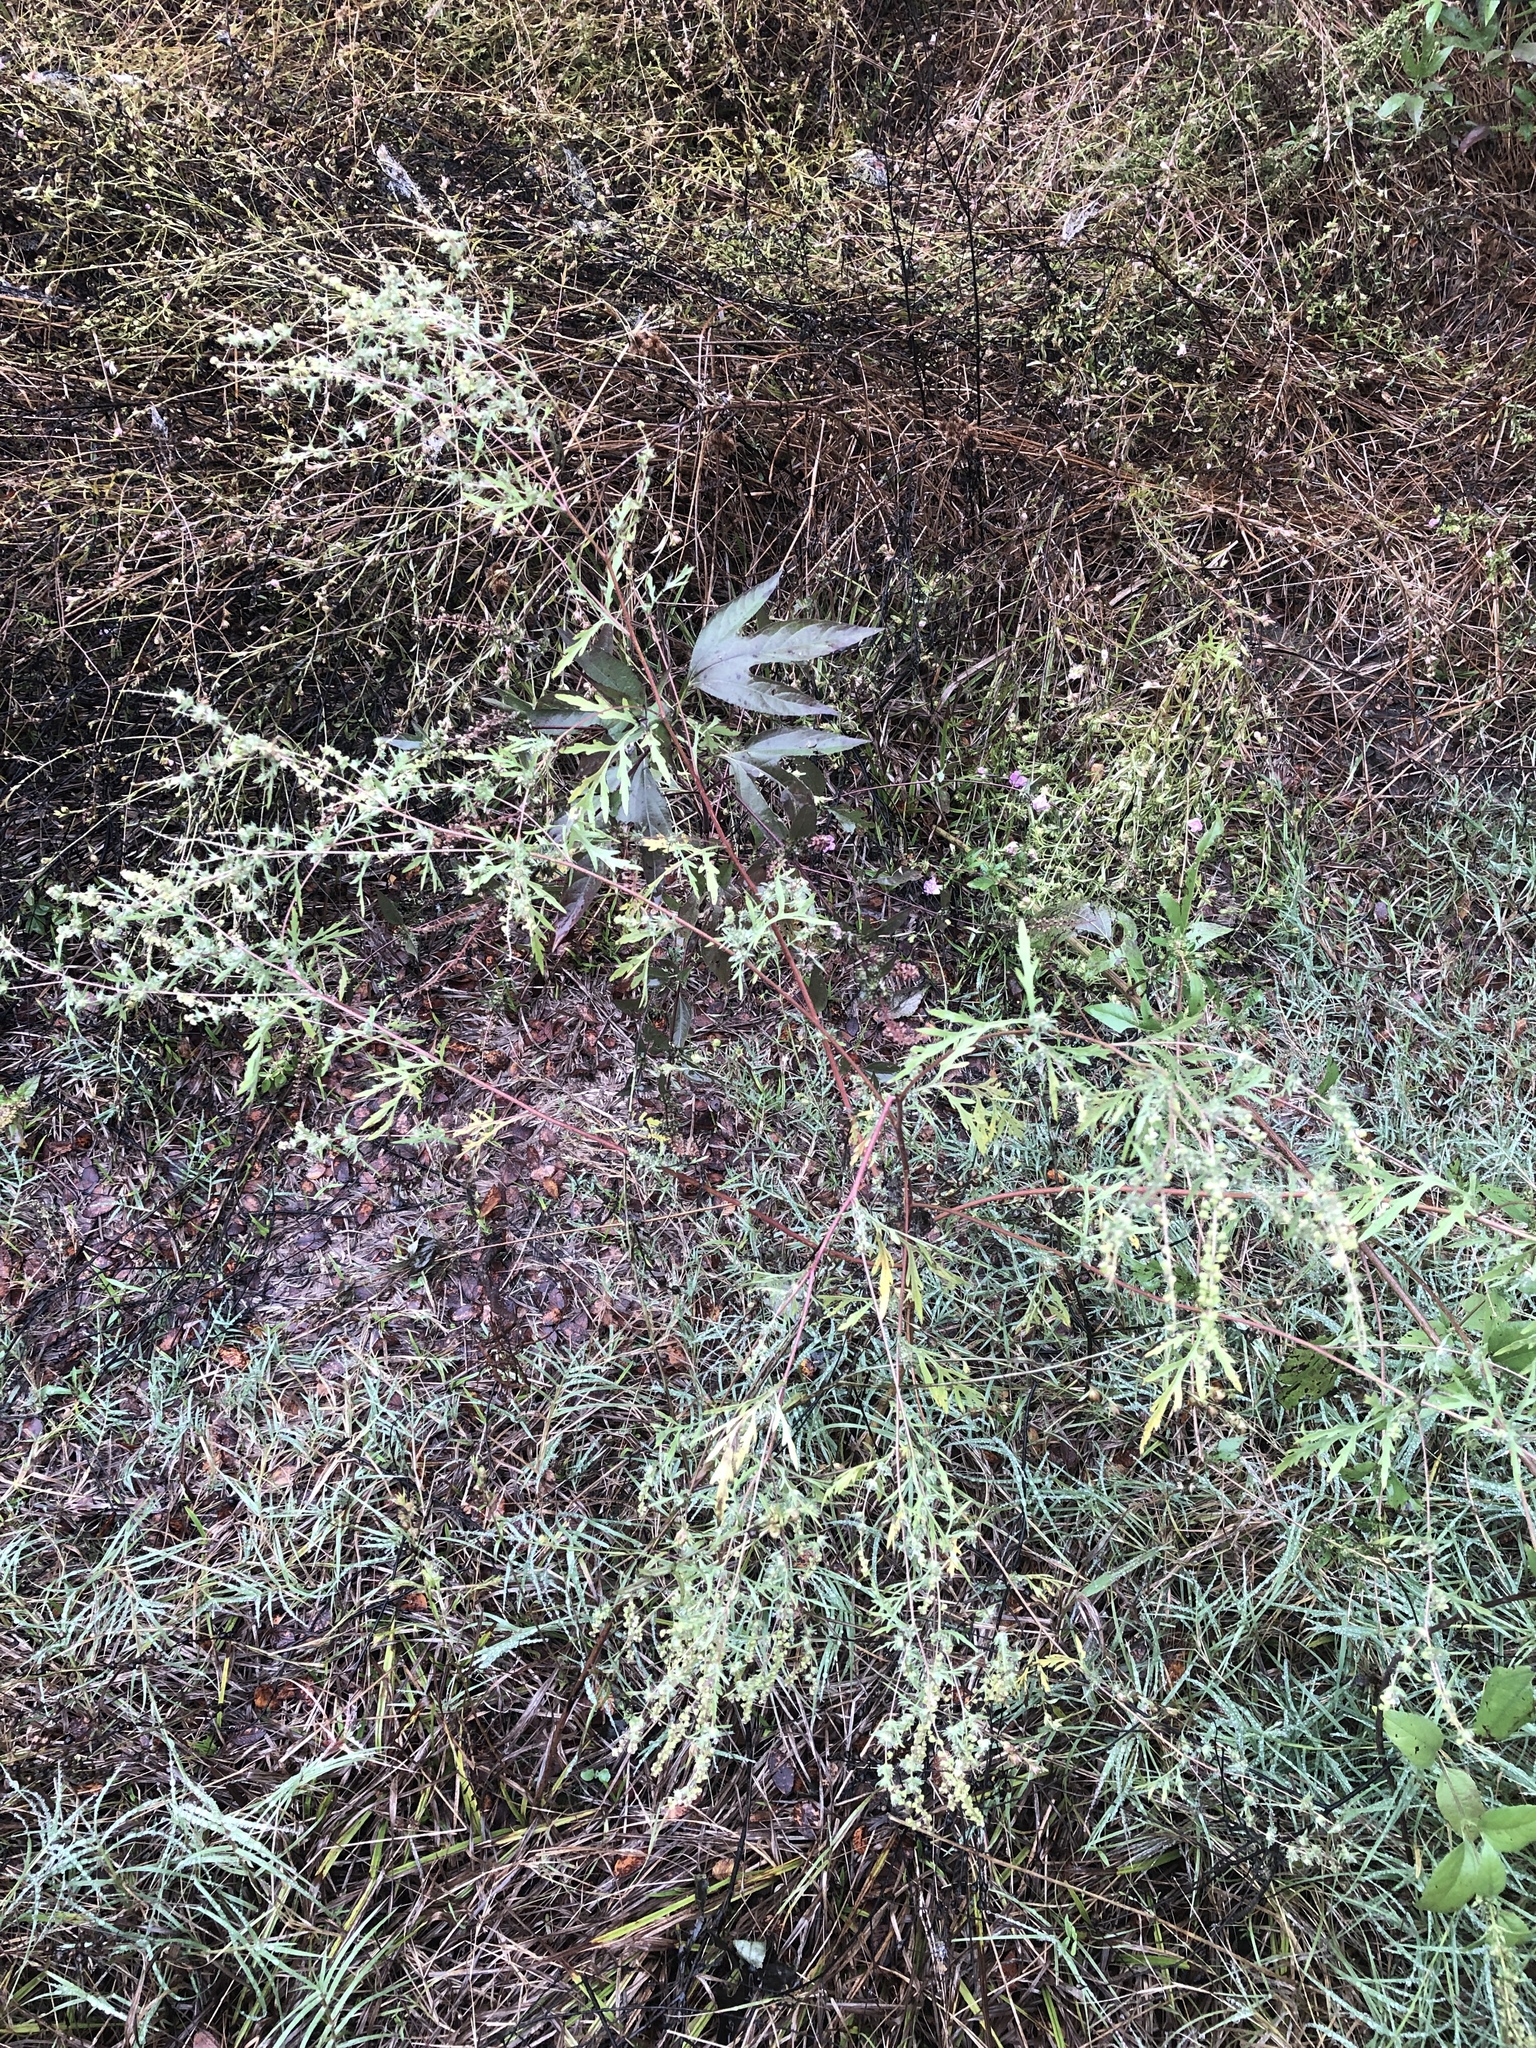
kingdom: Plantae
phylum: Tracheophyta
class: Magnoliopsida
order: Asterales
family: Asteraceae
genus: Ambrosia
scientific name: Ambrosia artemisiifolia
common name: Annual ragweed
